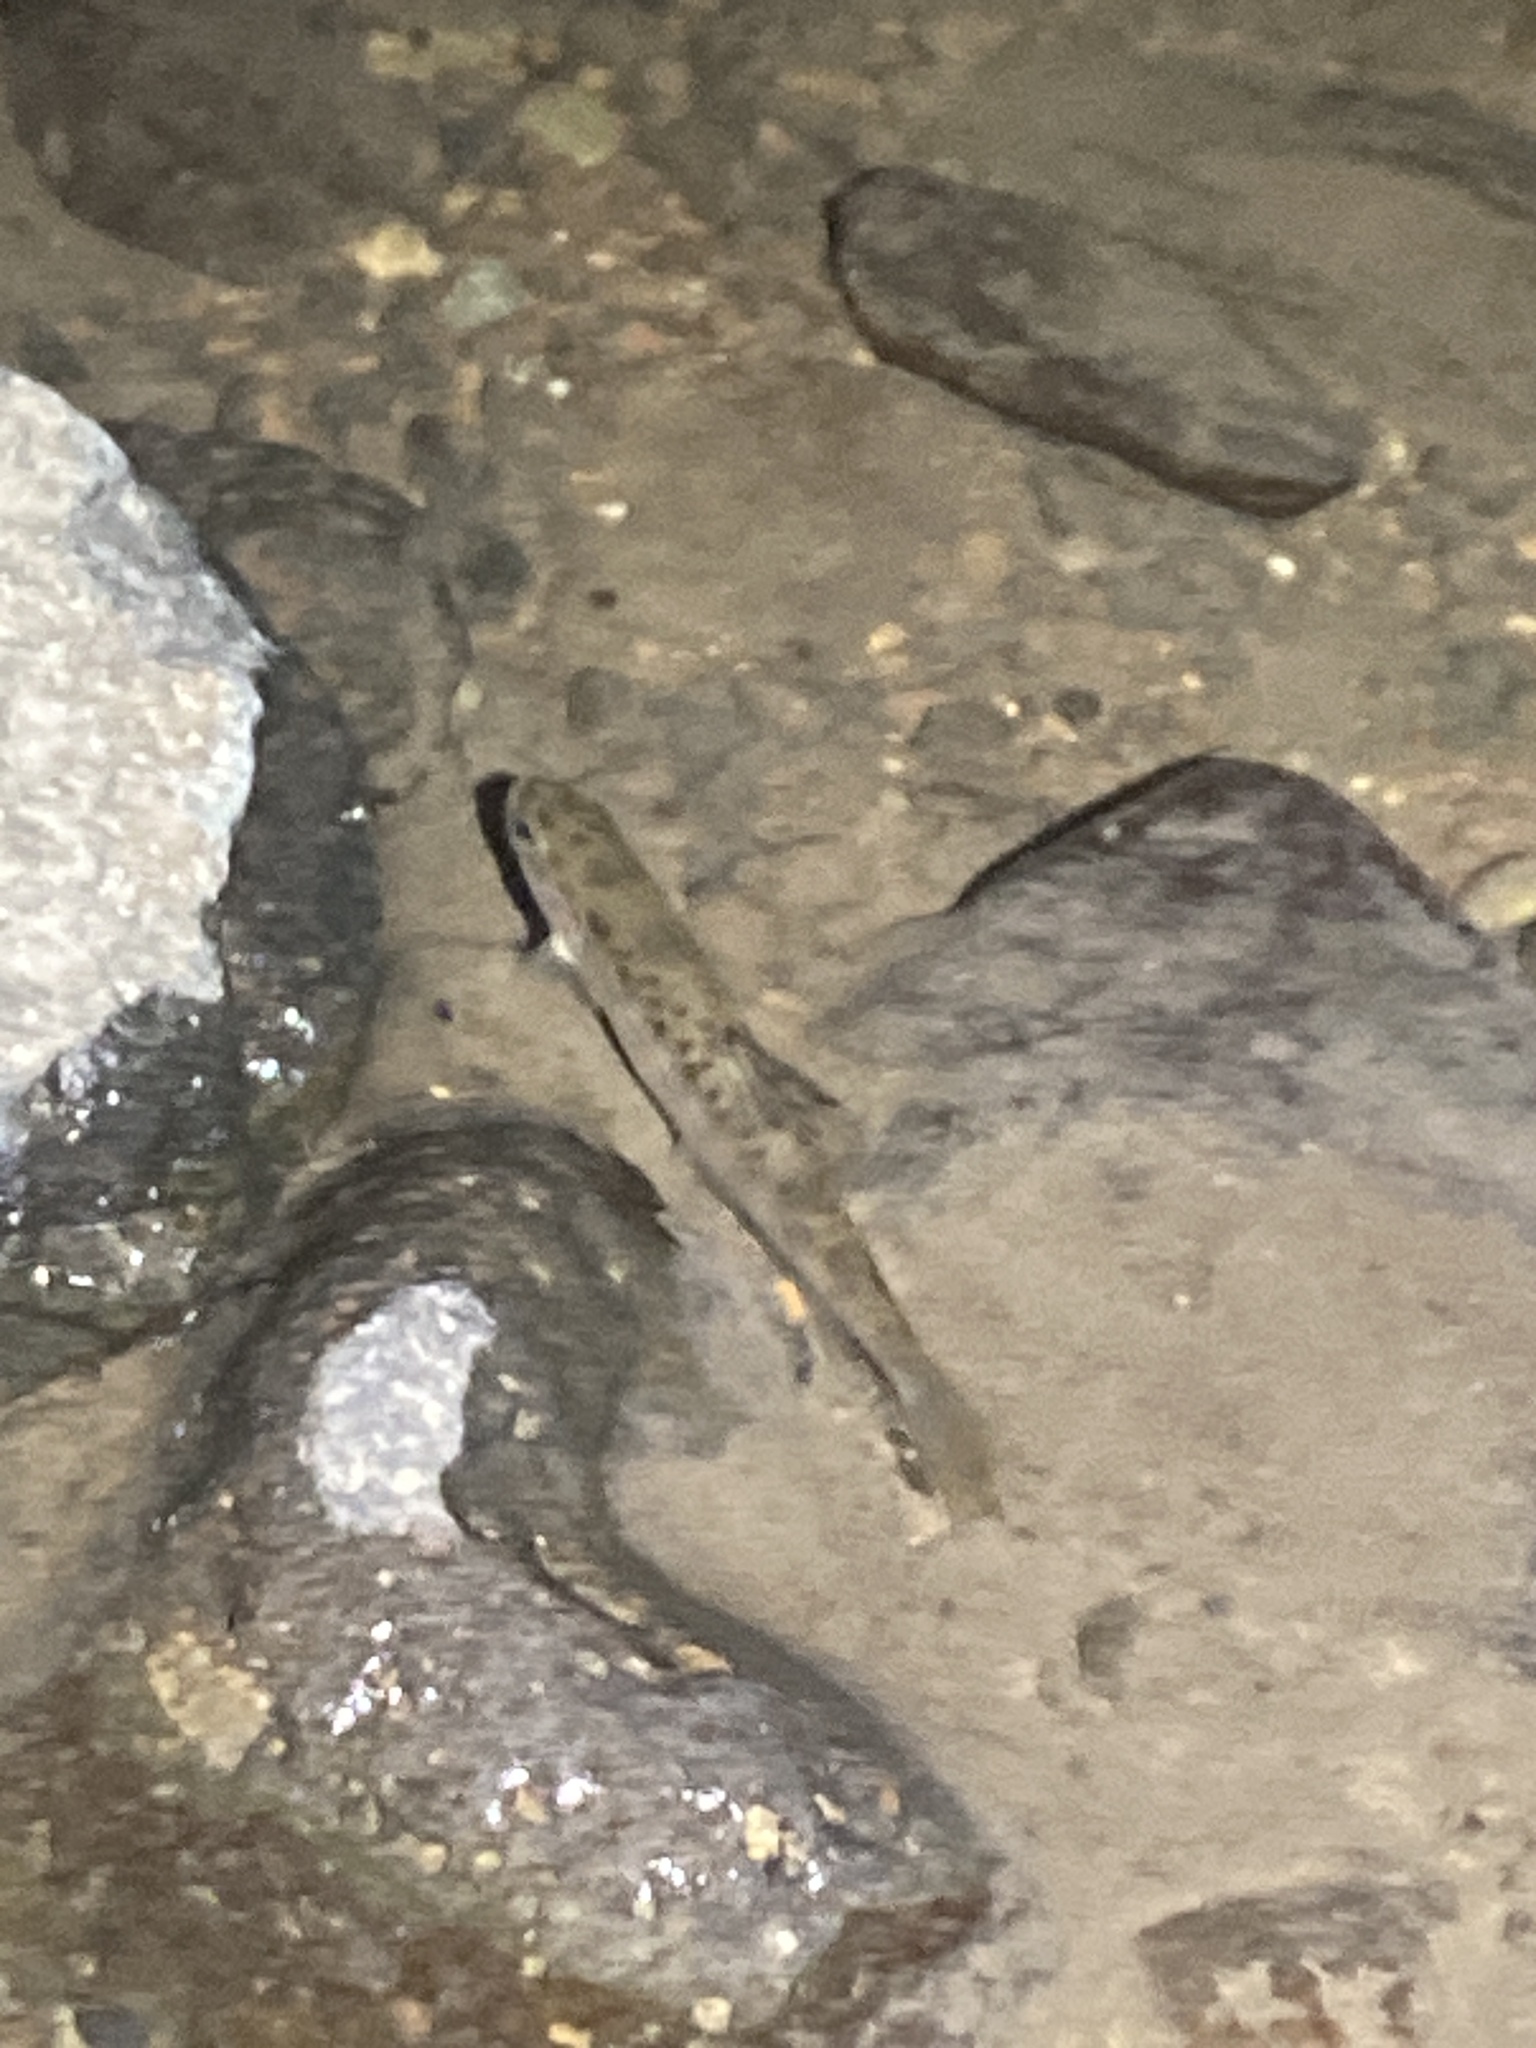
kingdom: Animalia
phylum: Chordata
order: Salmoniformes
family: Salmonidae
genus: Salmo
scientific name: Salmo trutta
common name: Brown trout
